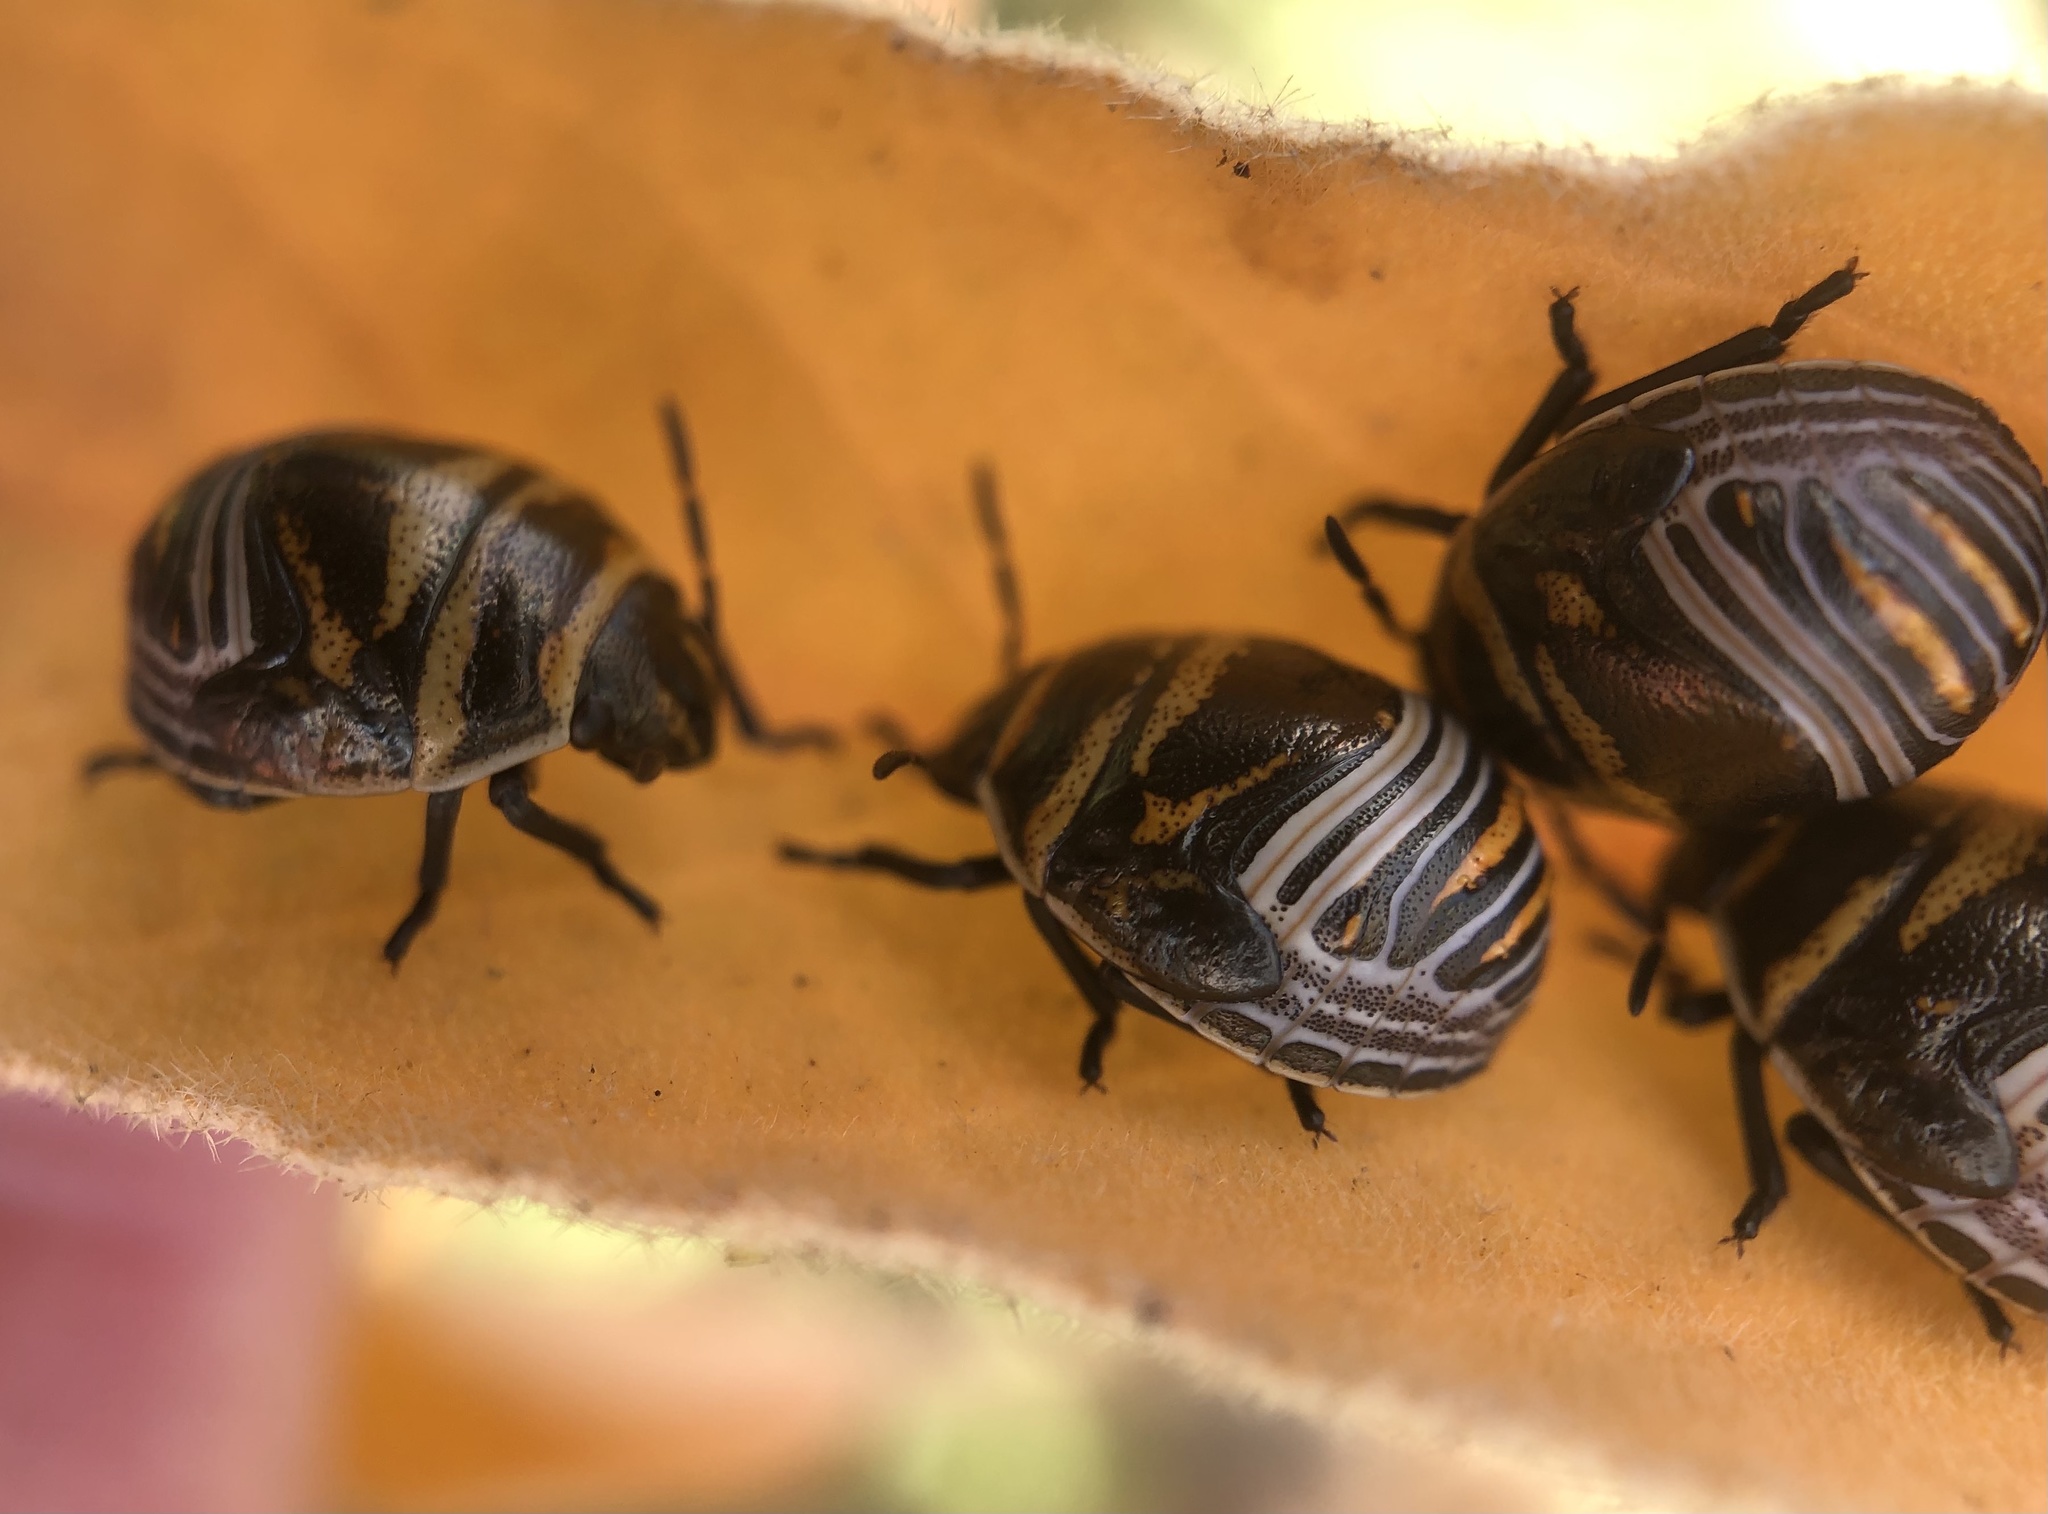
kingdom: Animalia
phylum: Arthropoda
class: Insecta
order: Hemiptera
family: Scutelleridae
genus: Orsilochides
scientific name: Orsilochides guttata
